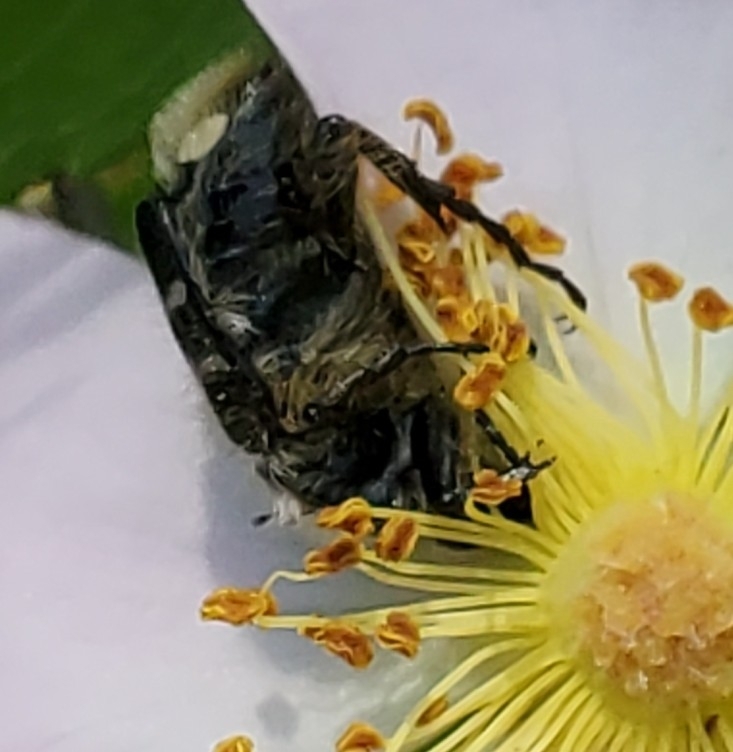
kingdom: Animalia
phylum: Arthropoda
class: Insecta
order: Coleoptera
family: Scarabaeidae
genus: Trichiotinus
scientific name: Trichiotinus assimilis
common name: Bee-mimic beetle
